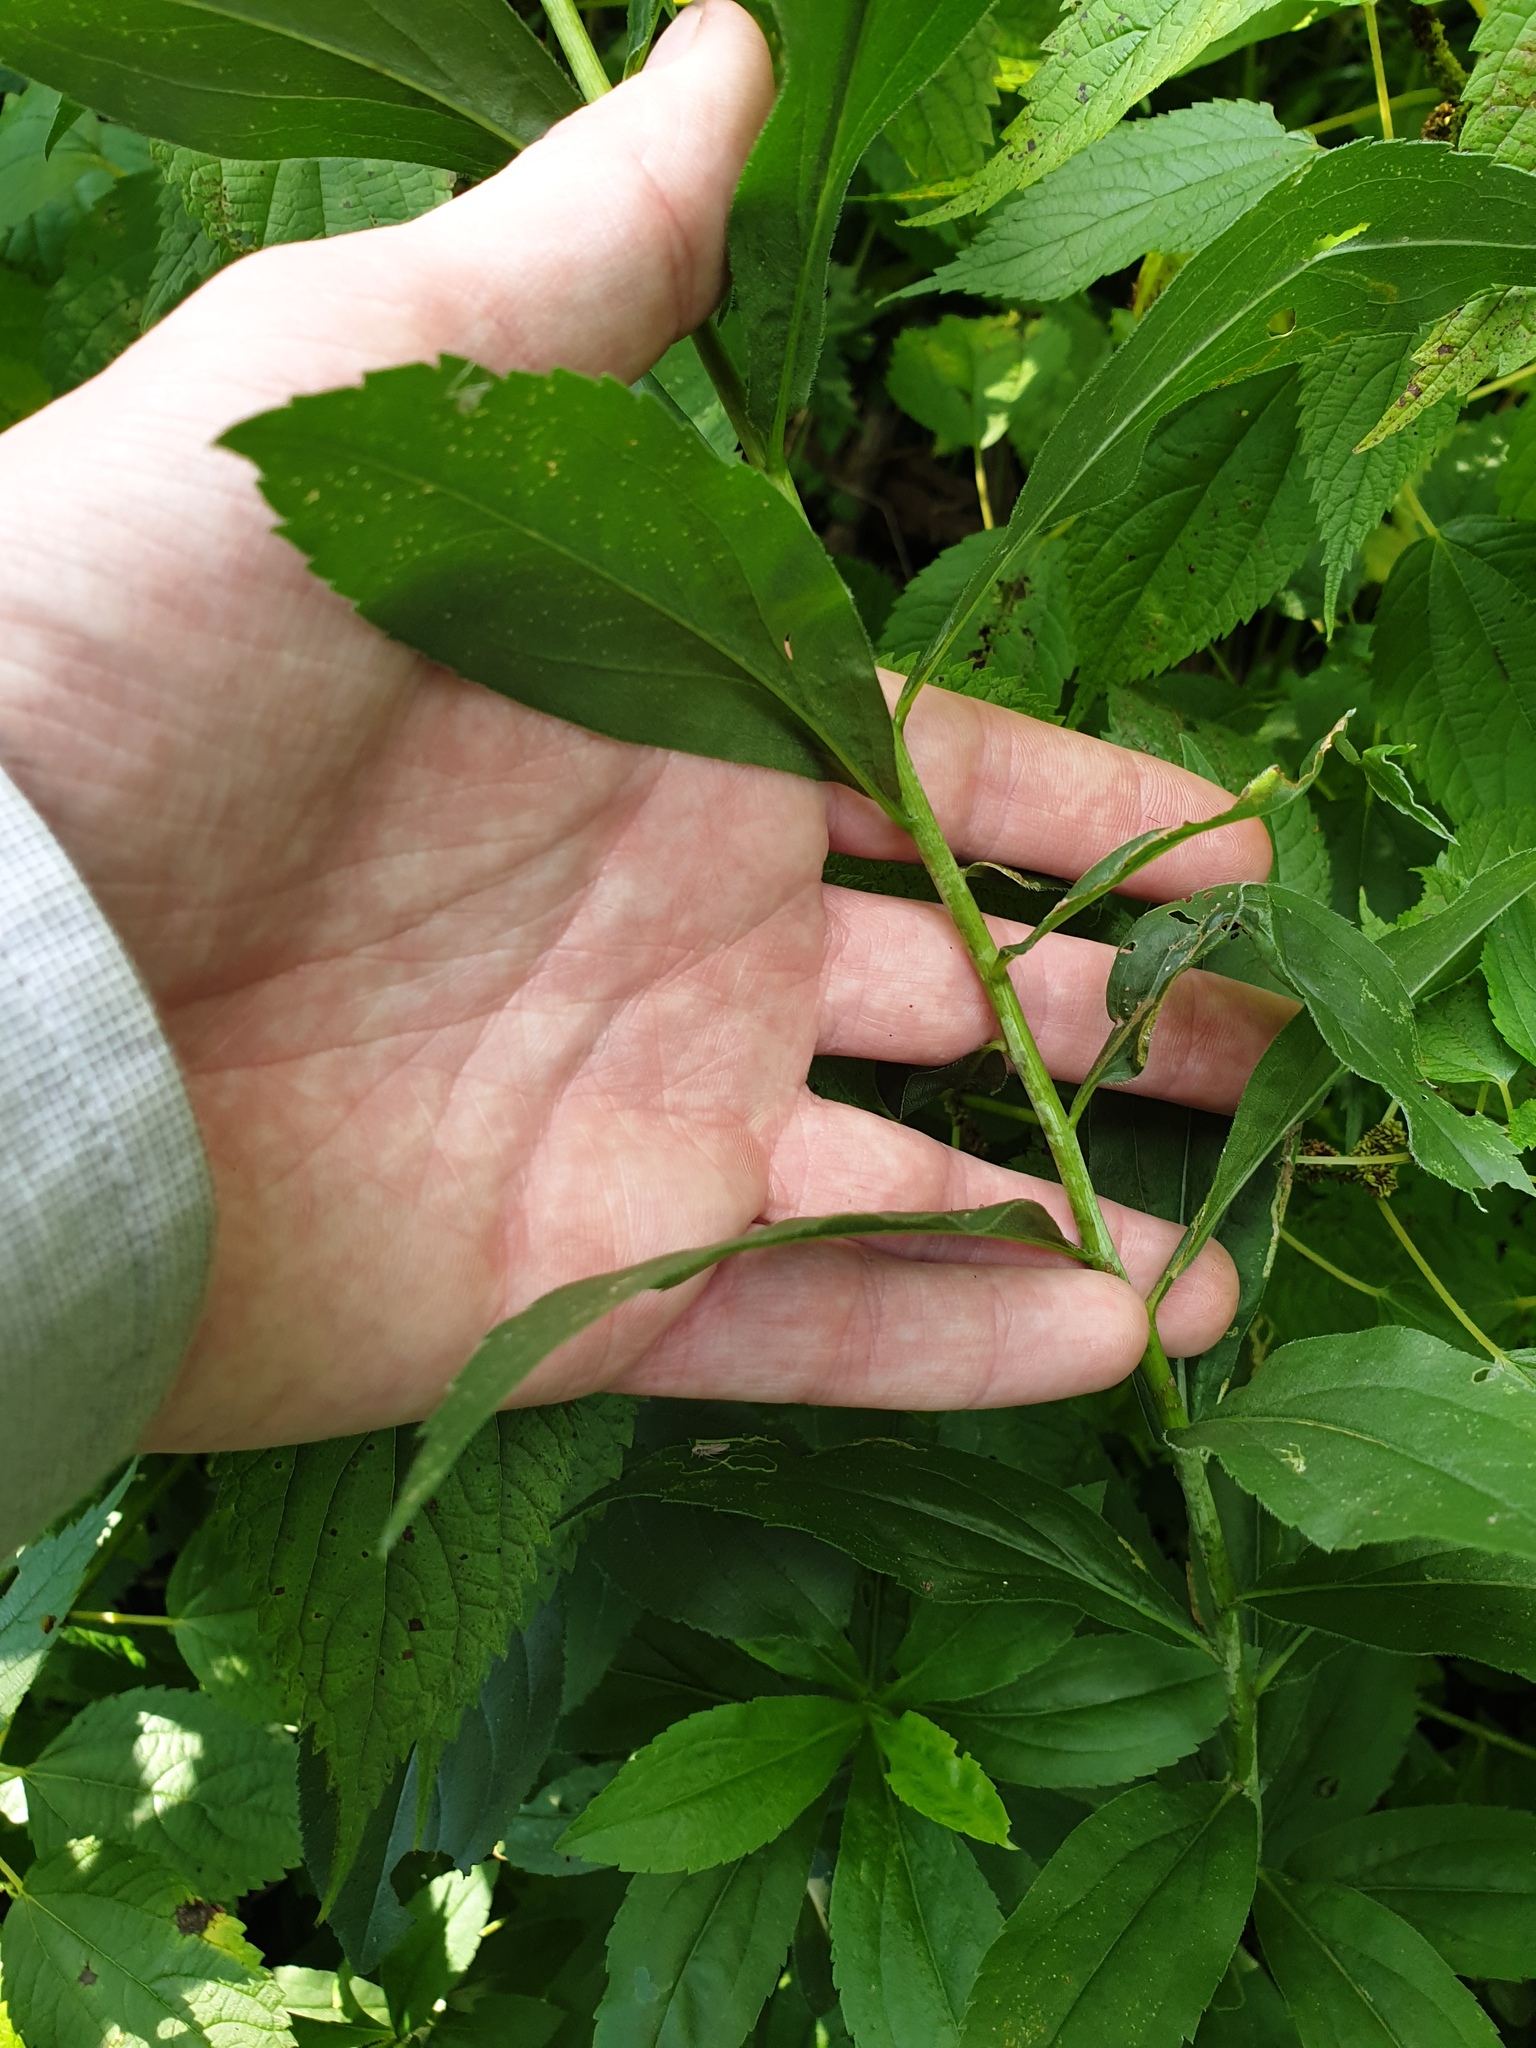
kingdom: Plantae
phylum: Tracheophyta
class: Magnoliopsida
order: Asterales
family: Asteraceae
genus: Solidago
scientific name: Solidago gigantea
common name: Giant goldenrod
